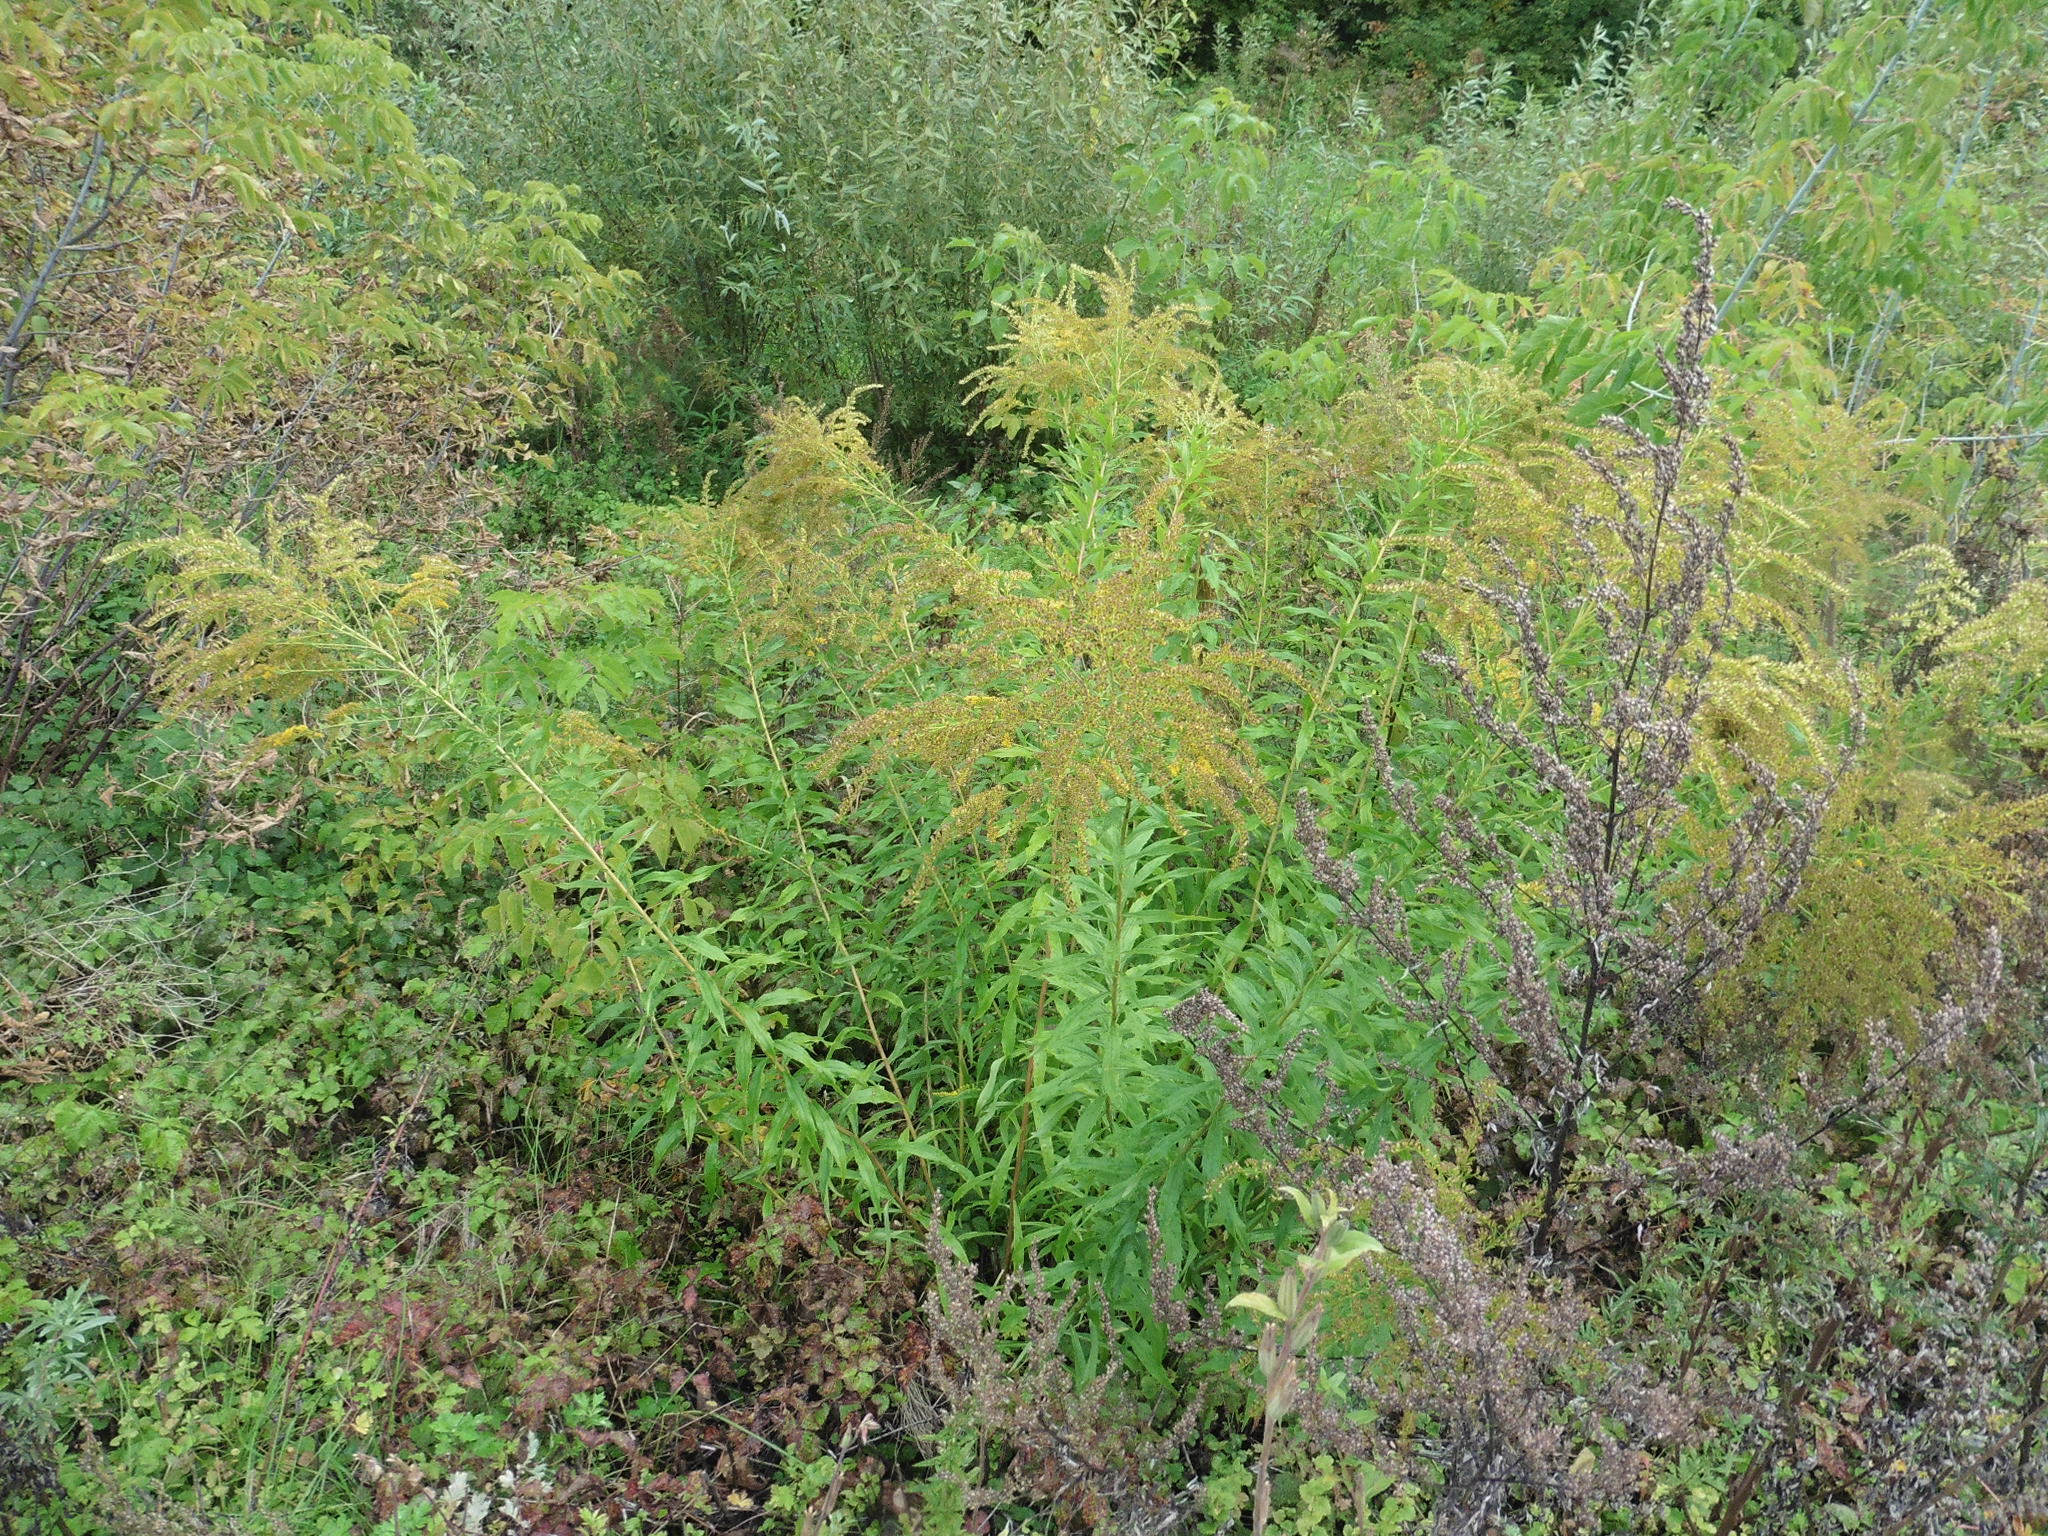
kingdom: Plantae
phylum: Tracheophyta
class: Magnoliopsida
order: Asterales
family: Asteraceae
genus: Solidago
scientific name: Solidago canadensis
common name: Canada goldenrod
